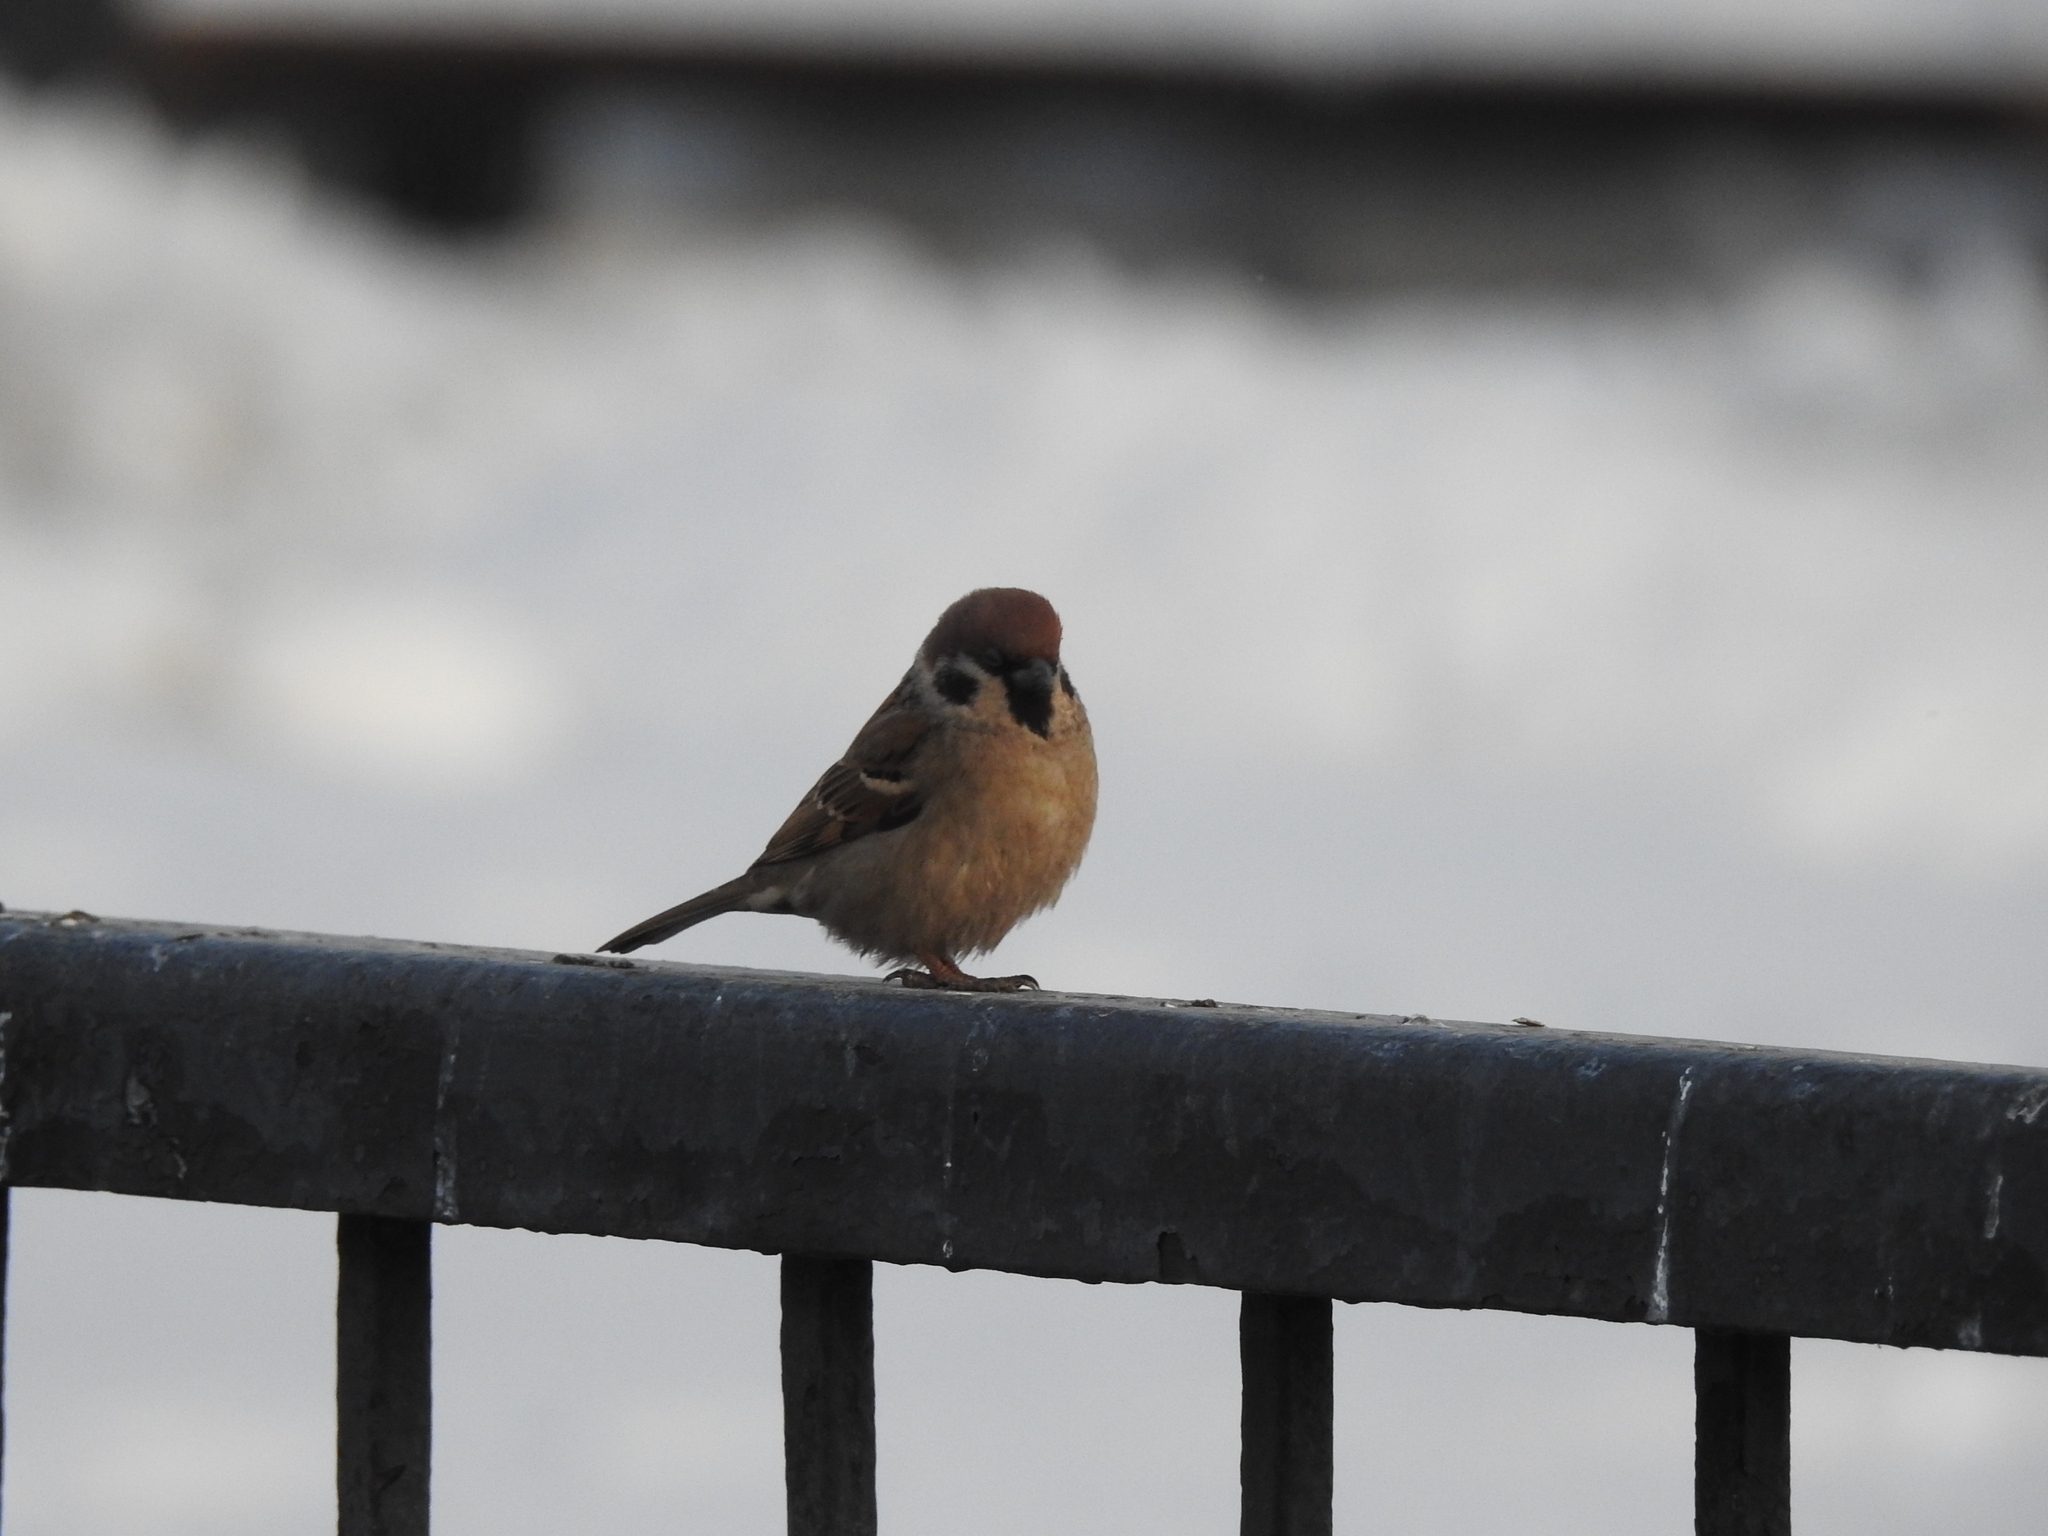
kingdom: Animalia
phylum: Chordata
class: Aves
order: Passeriformes
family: Passeridae
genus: Passer
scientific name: Passer montanus
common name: Eurasian tree sparrow
